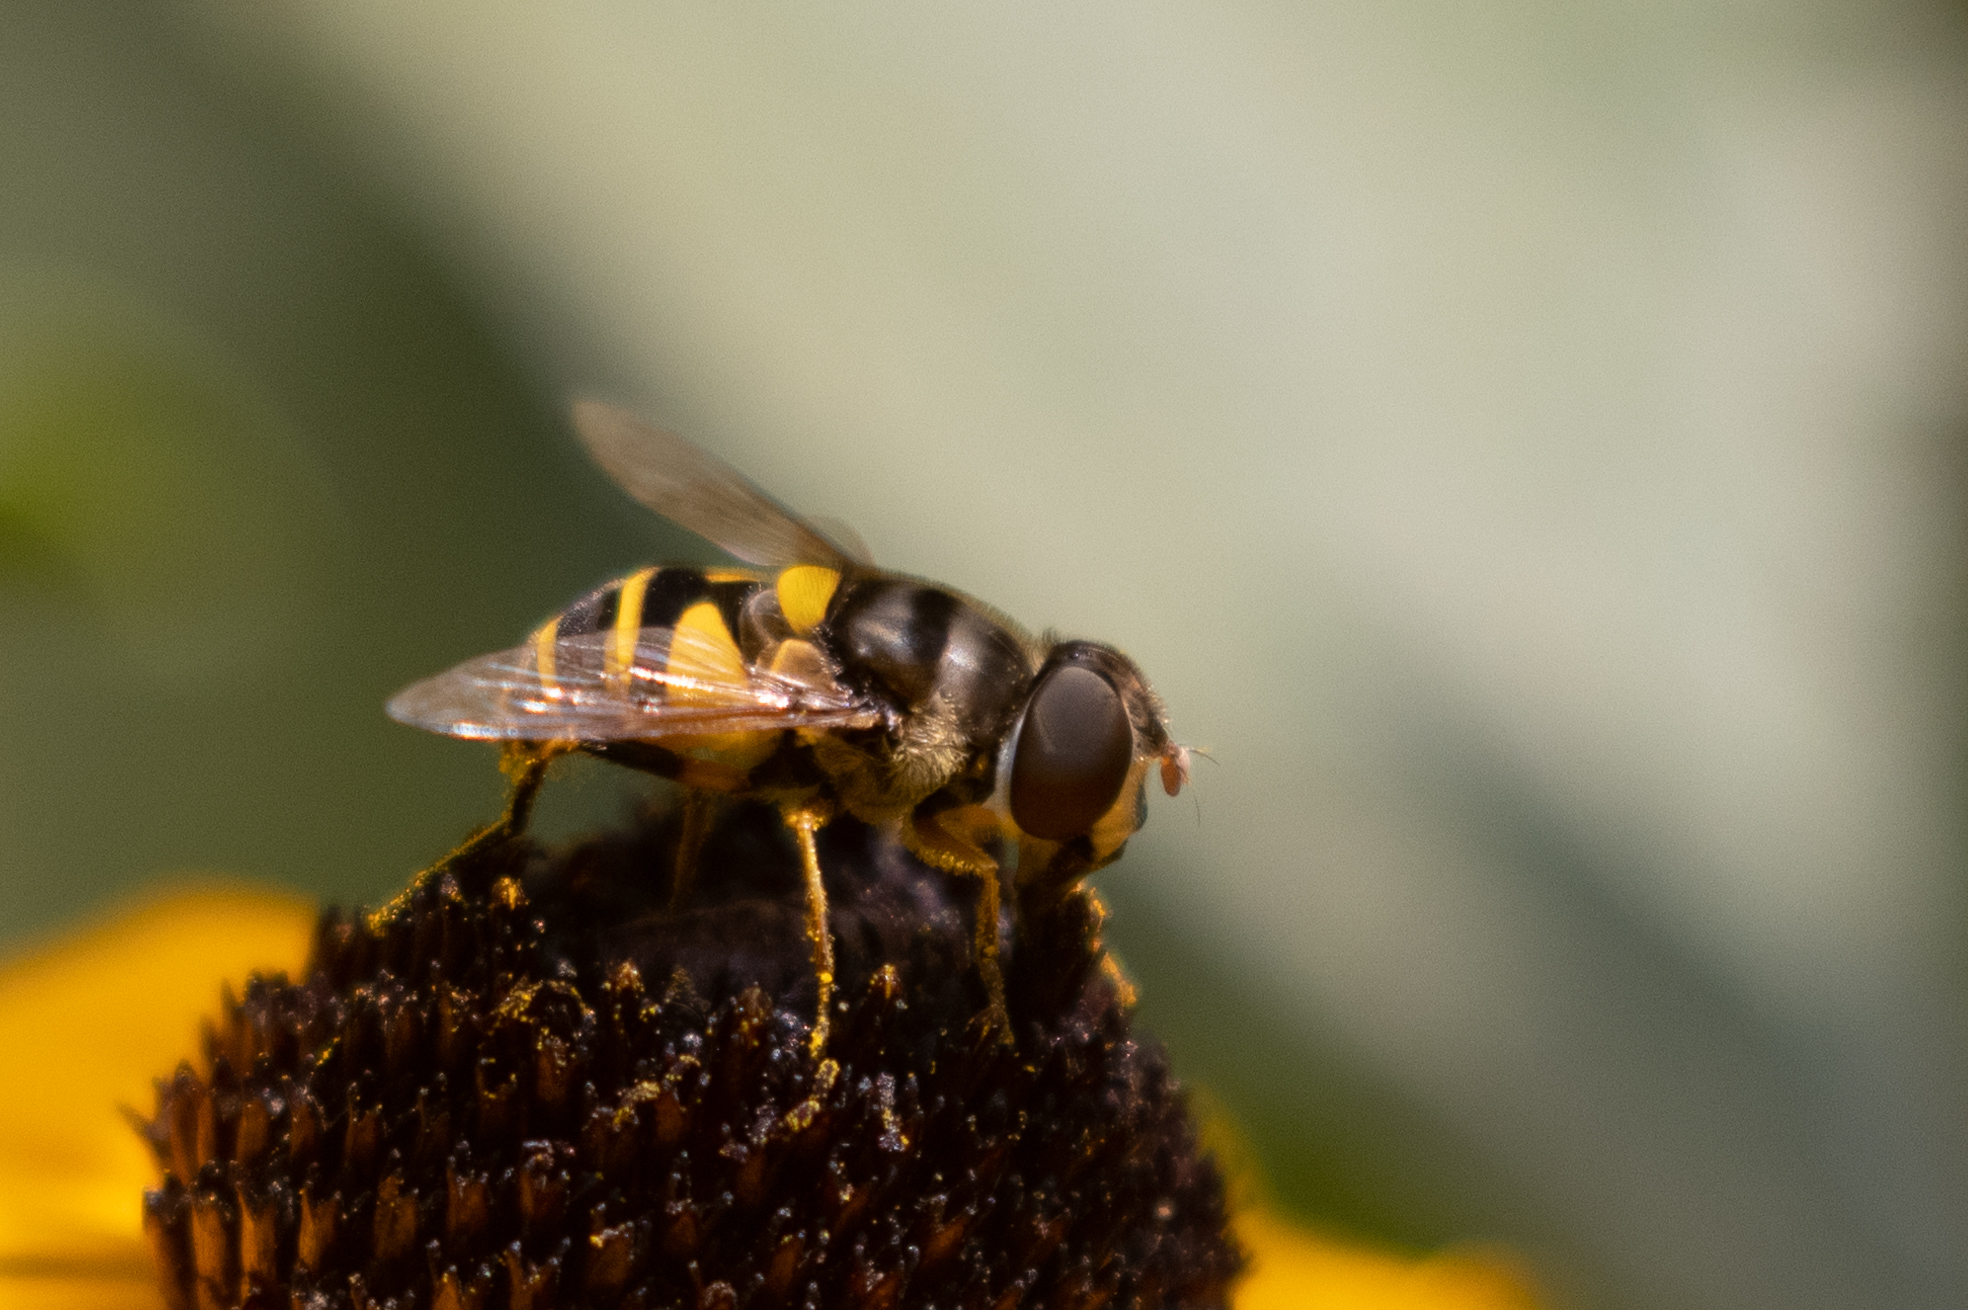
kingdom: Animalia
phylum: Arthropoda
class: Insecta
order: Diptera
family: Syrphidae
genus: Eristalis
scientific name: Eristalis transversa
